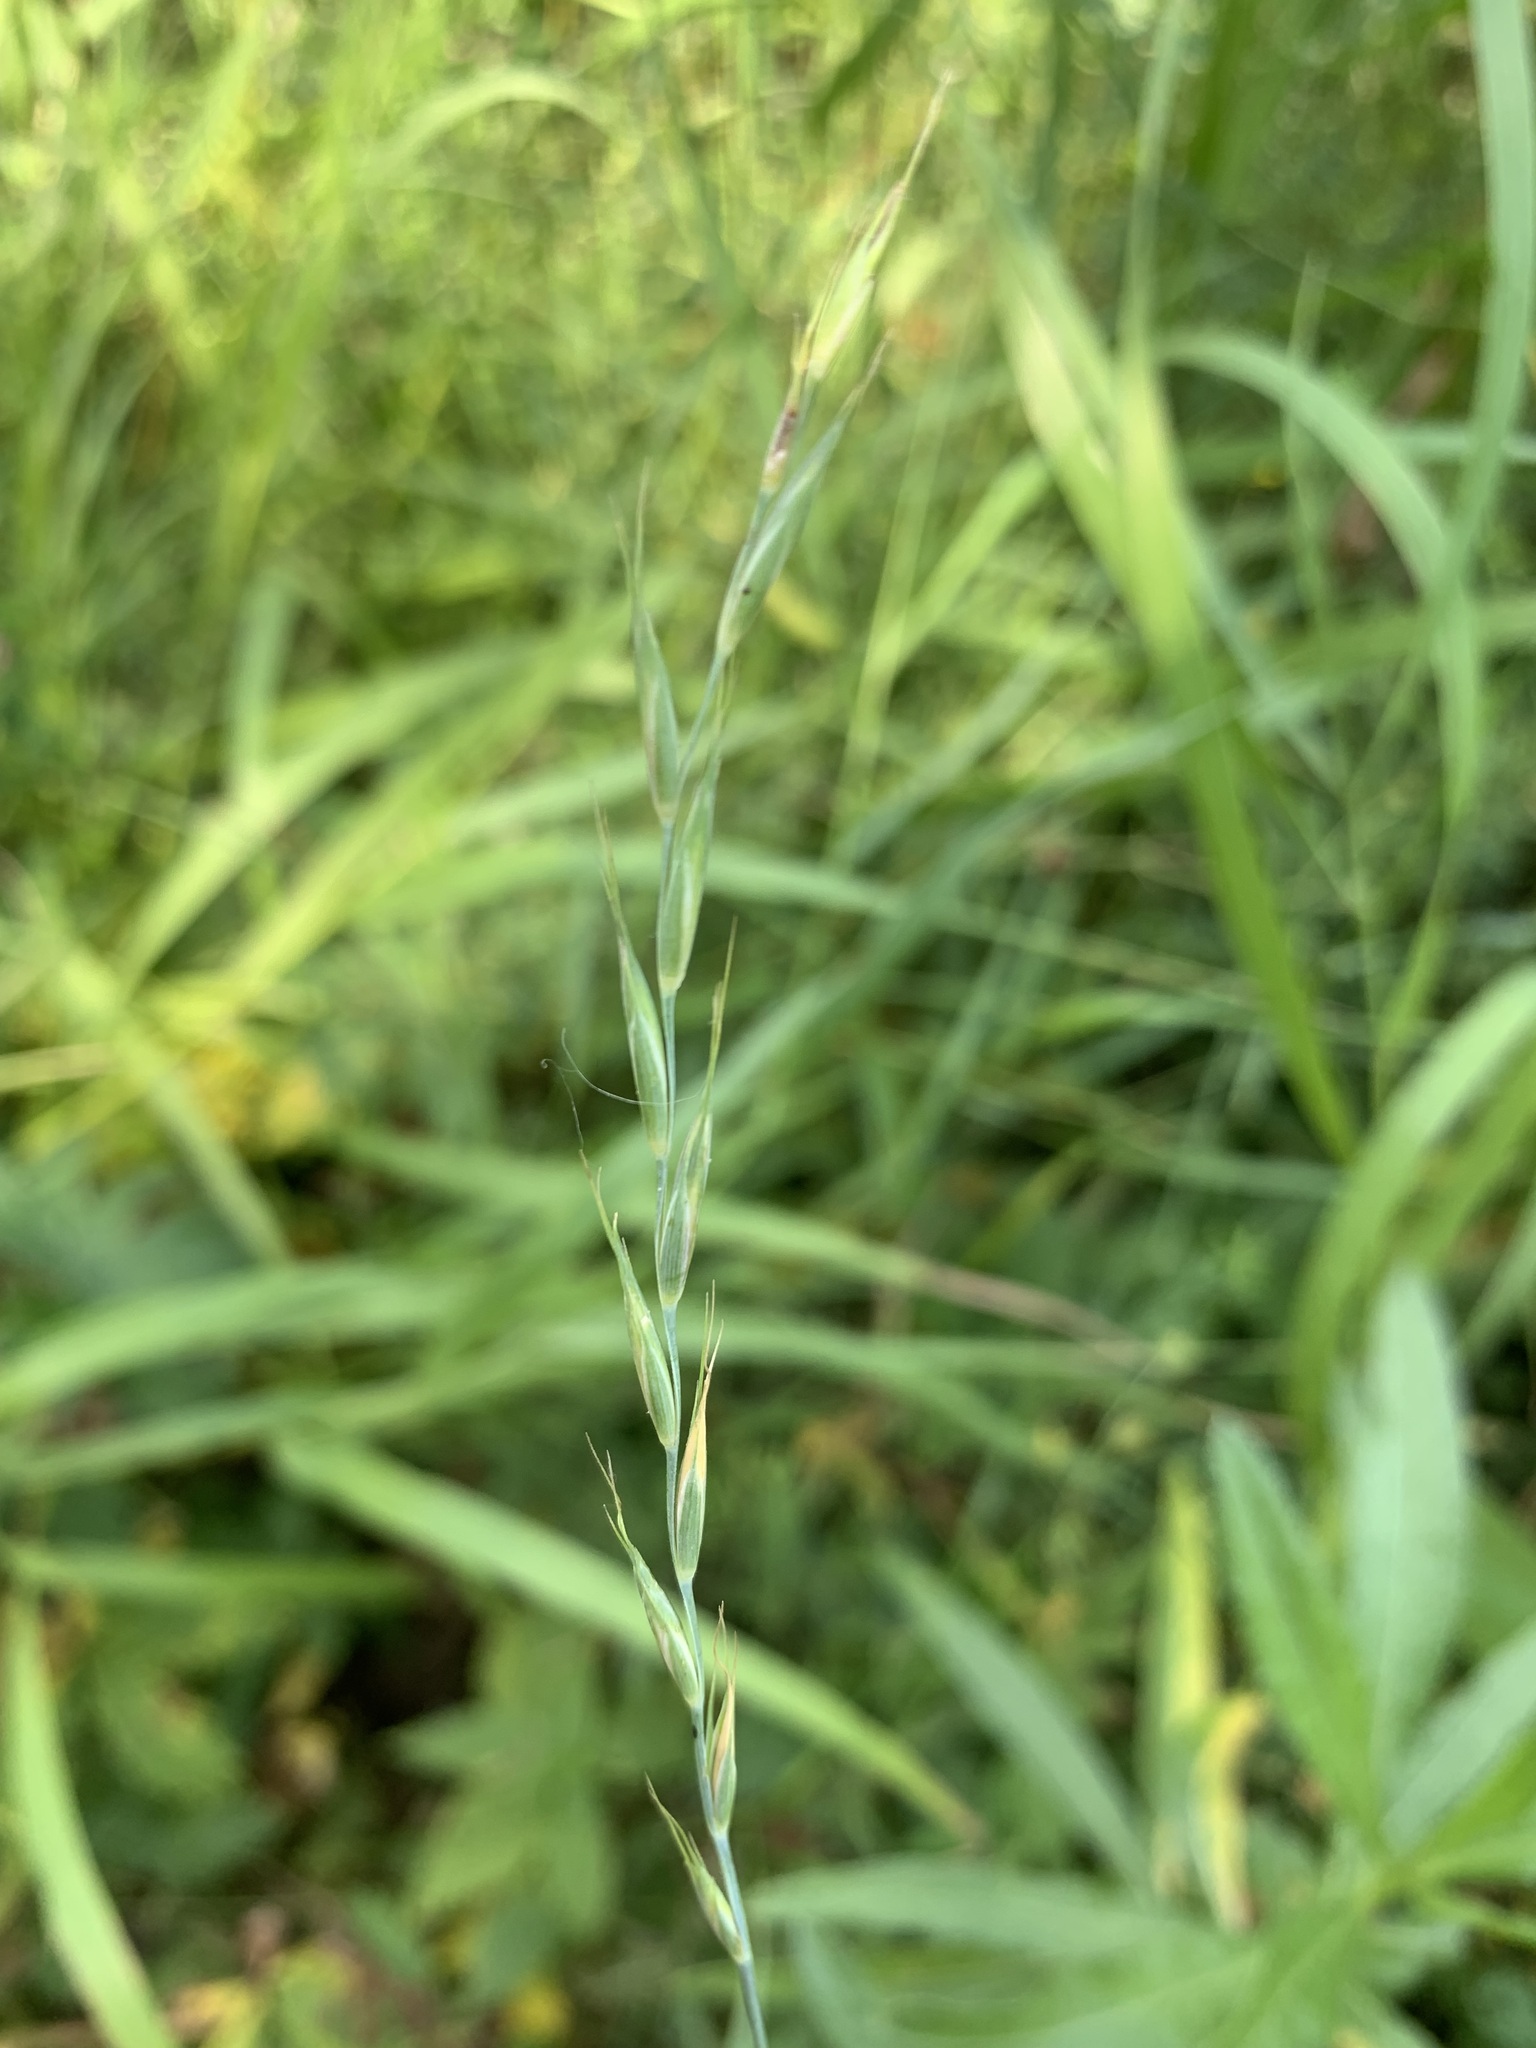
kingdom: Plantae
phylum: Tracheophyta
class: Liliopsida
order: Poales
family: Poaceae
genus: Elymus
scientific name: Elymus caninus
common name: Bearded couch
